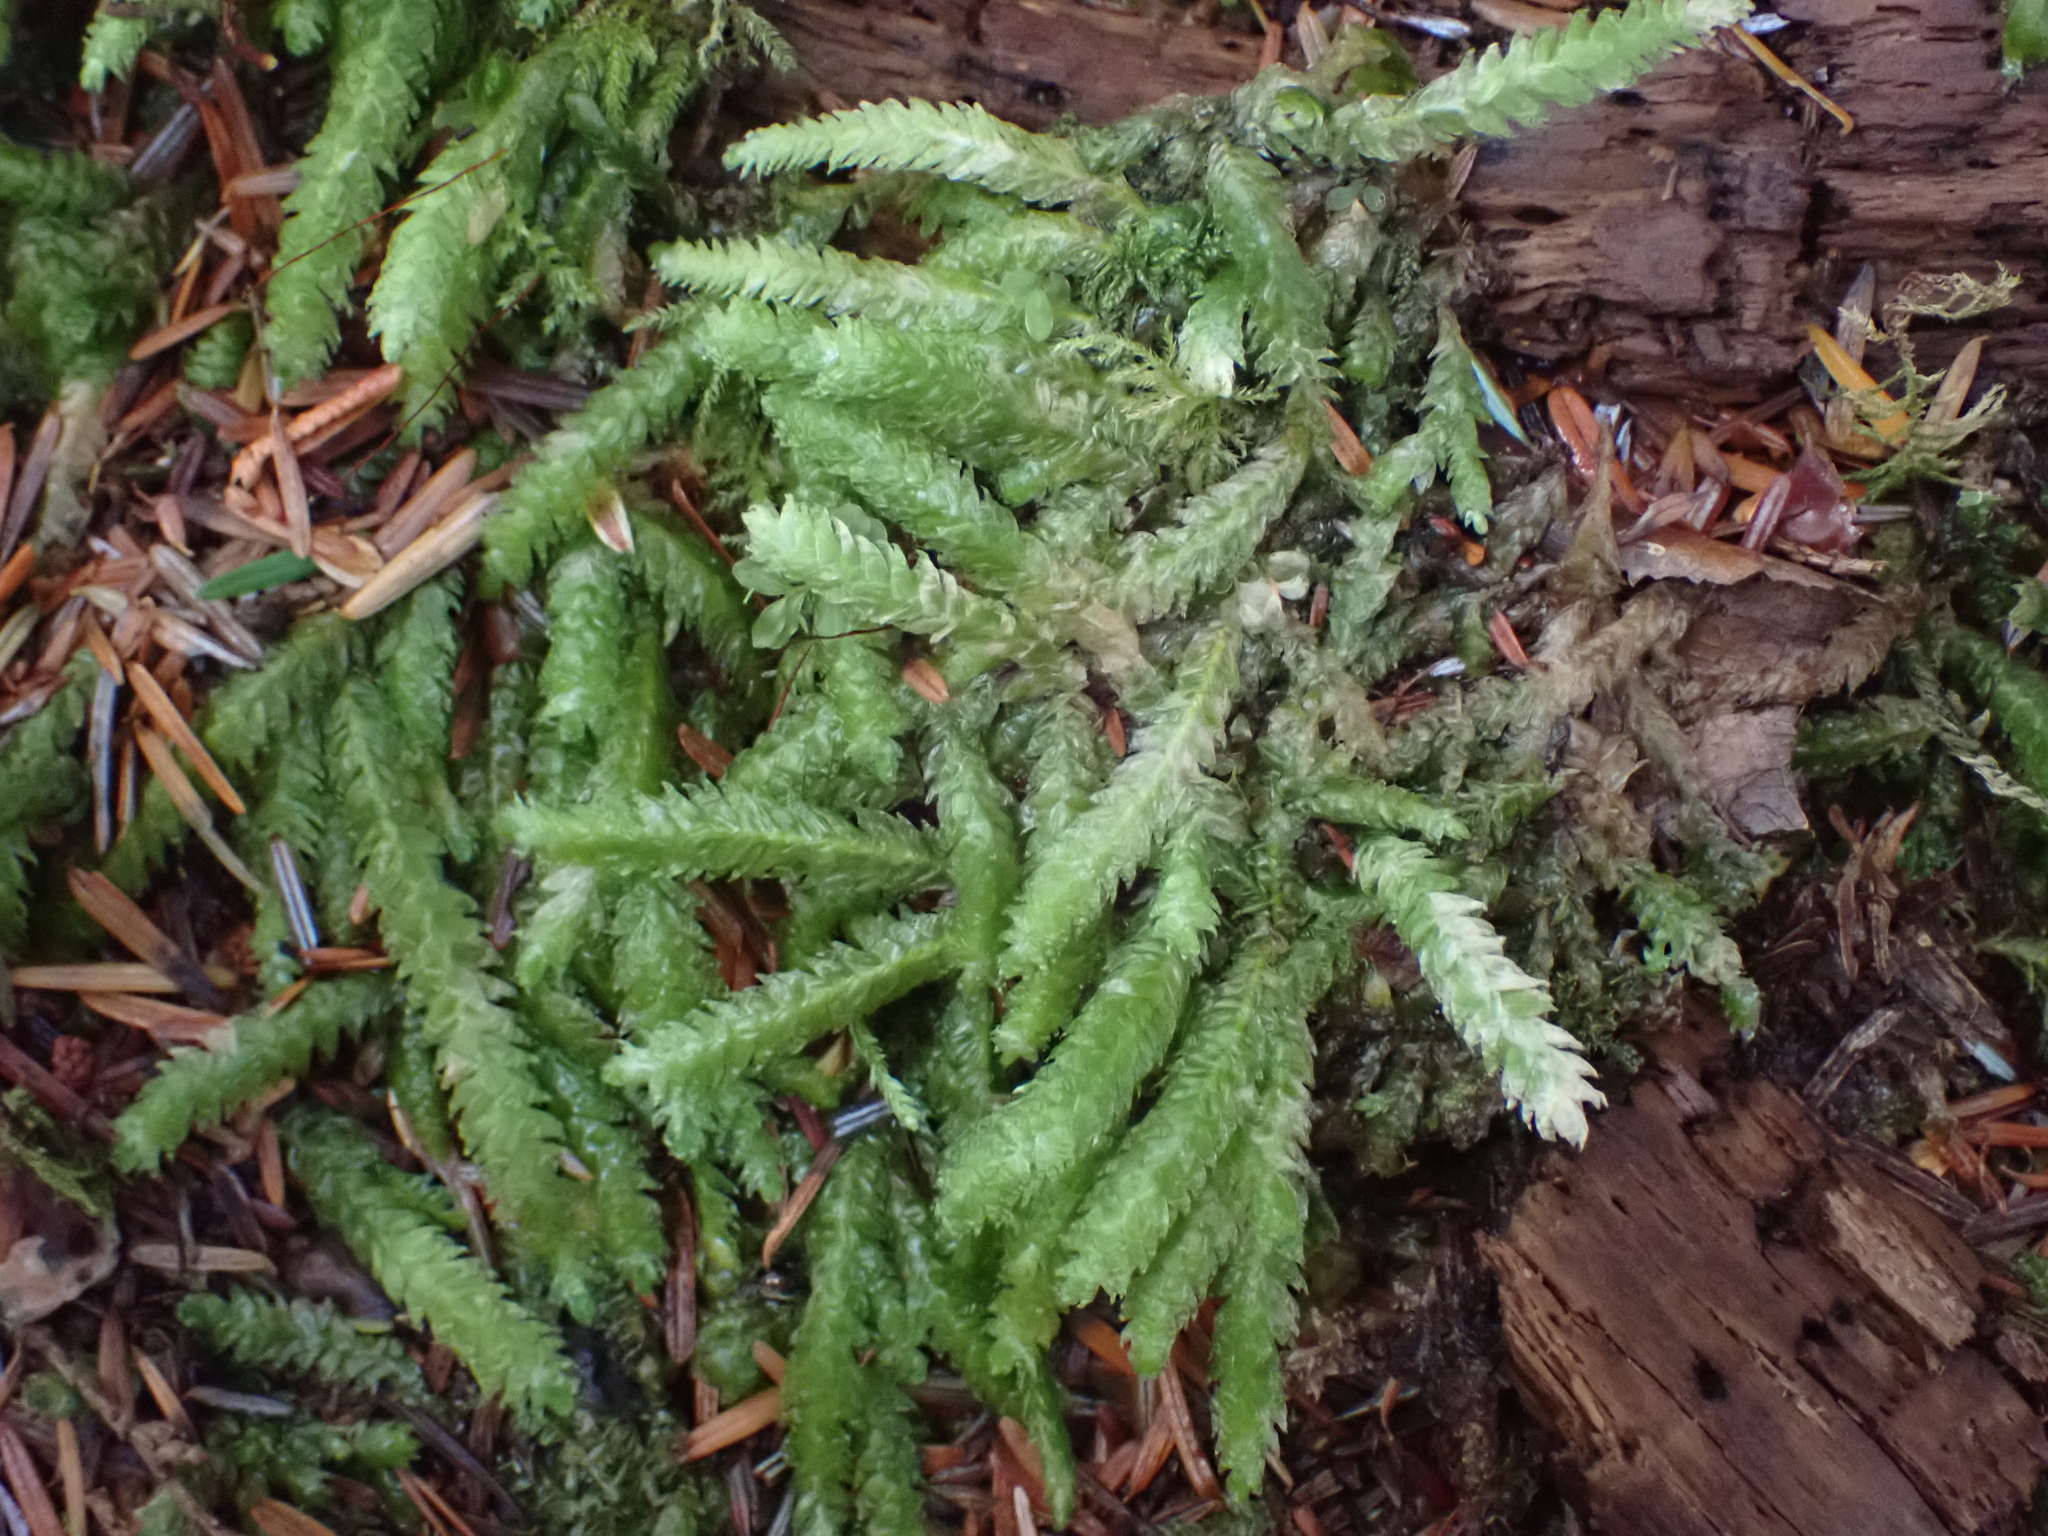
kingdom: Plantae
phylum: Bryophyta
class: Bryopsida
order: Hypnales
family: Plagiotheciaceae
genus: Plagiothecium
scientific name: Plagiothecium undulatum
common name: Waved silk-moss
